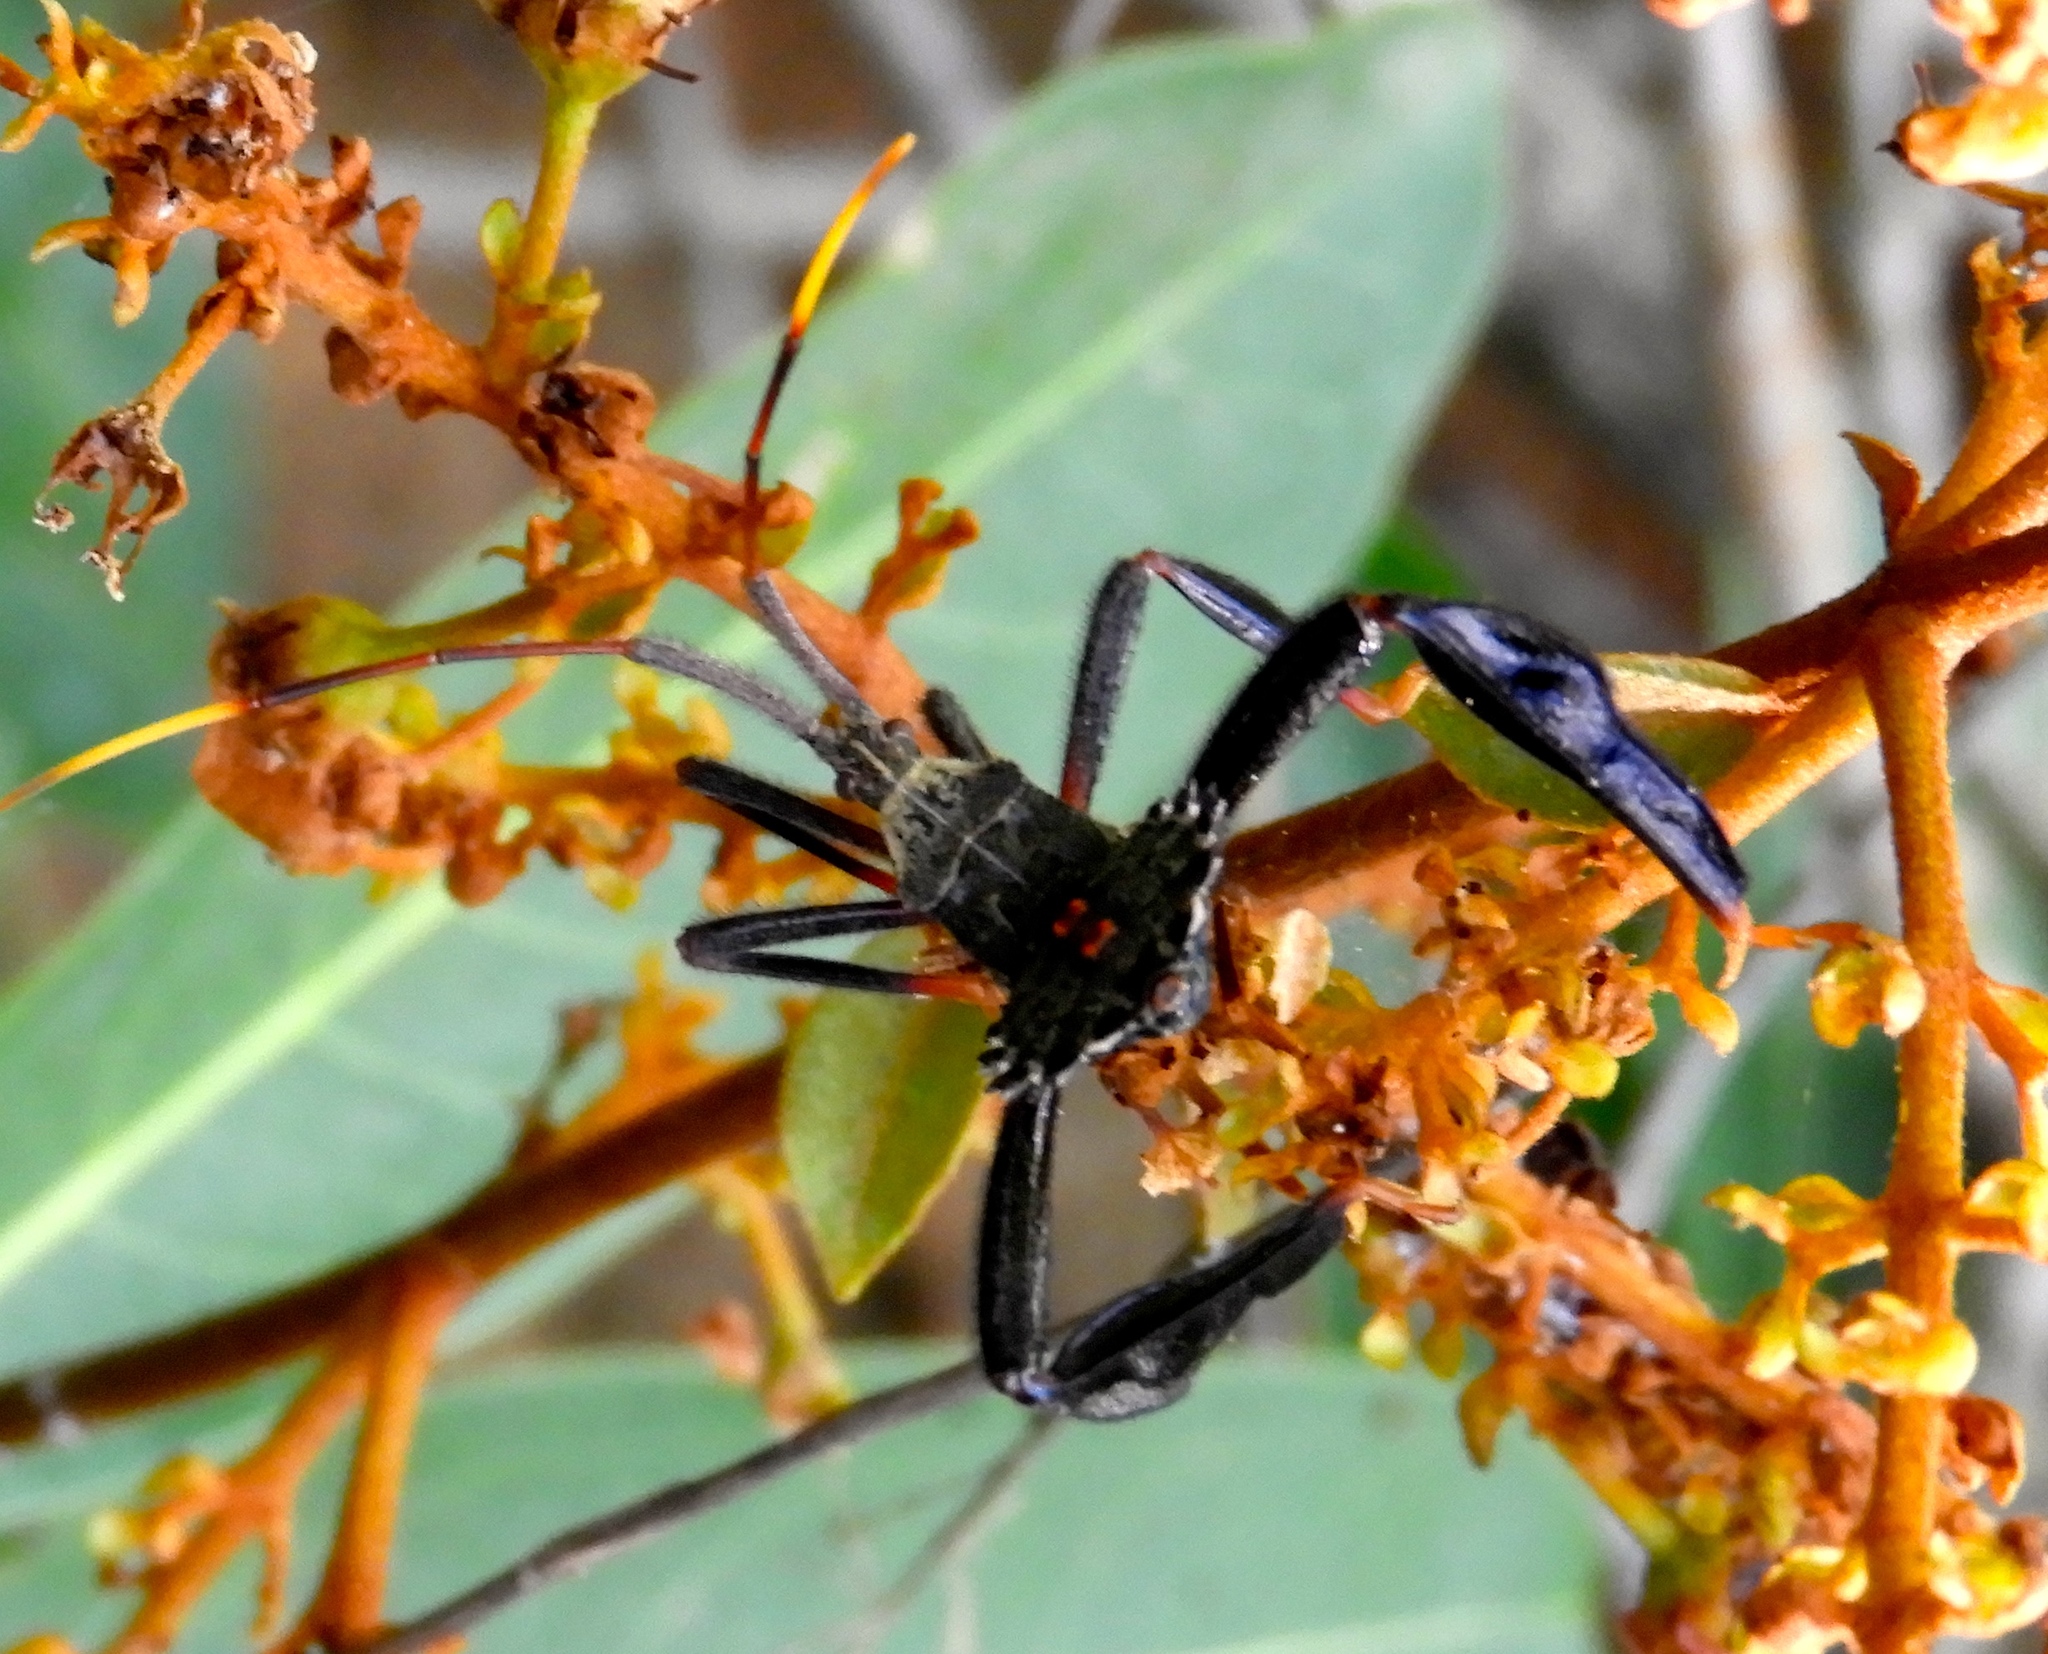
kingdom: Animalia
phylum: Arthropoda
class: Insecta
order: Hemiptera
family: Coreidae
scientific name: Coreidae
